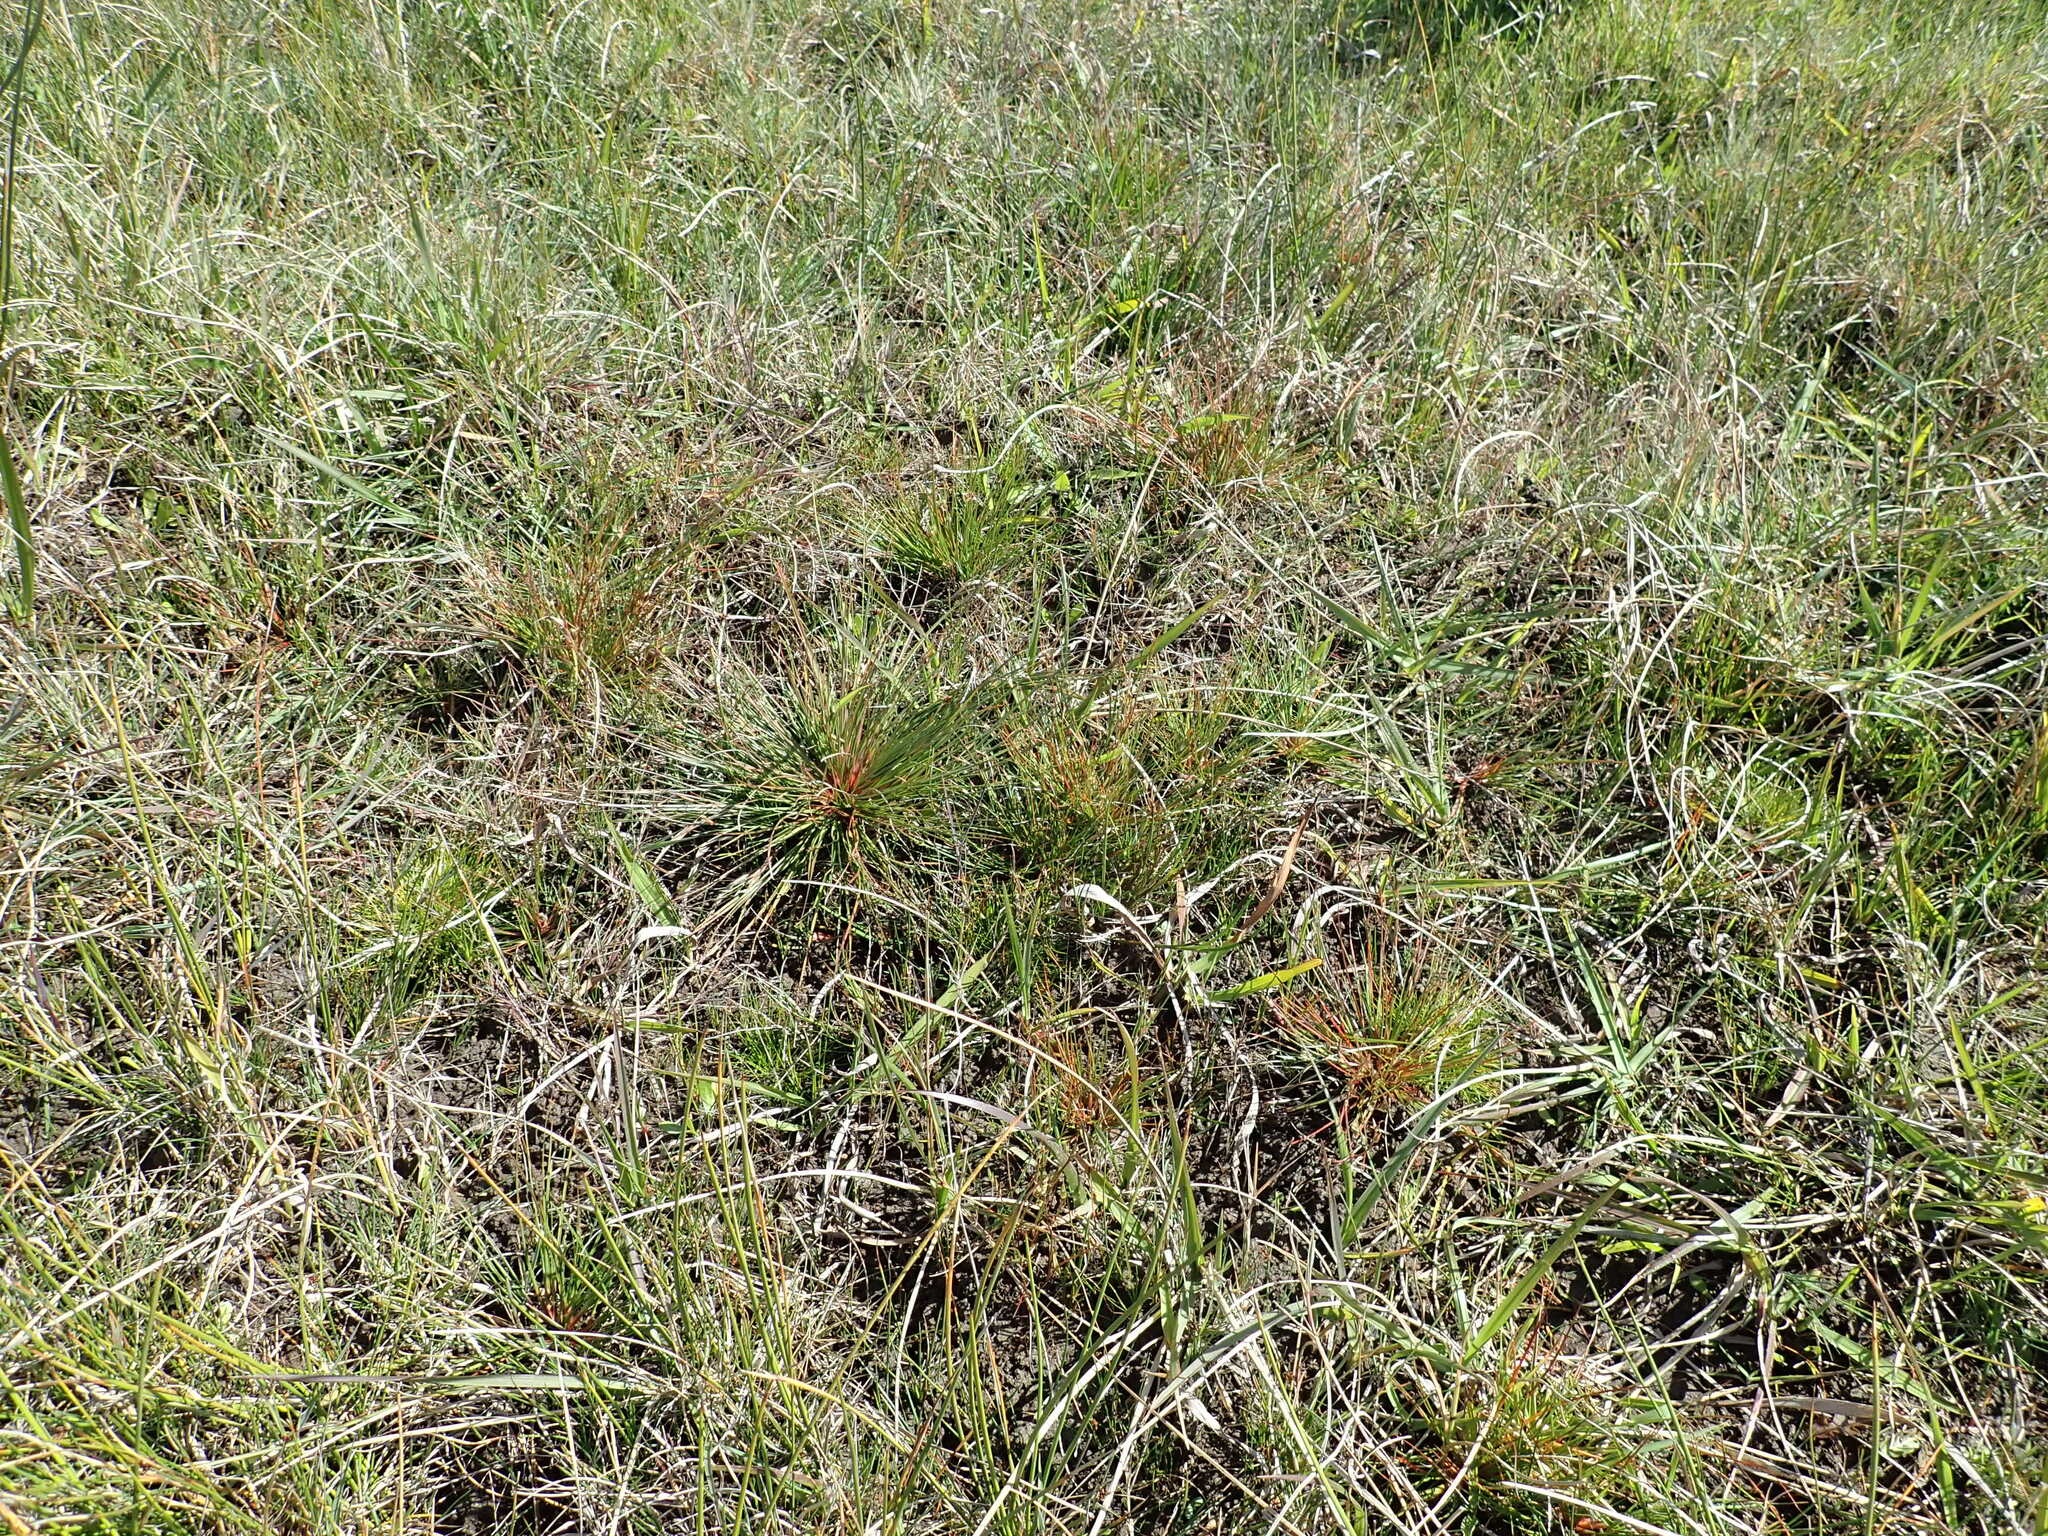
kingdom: Plantae
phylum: Tracheophyta
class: Liliopsida
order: Poales
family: Juncaceae
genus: Juncus
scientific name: Juncus bufonius
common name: Toad rush
